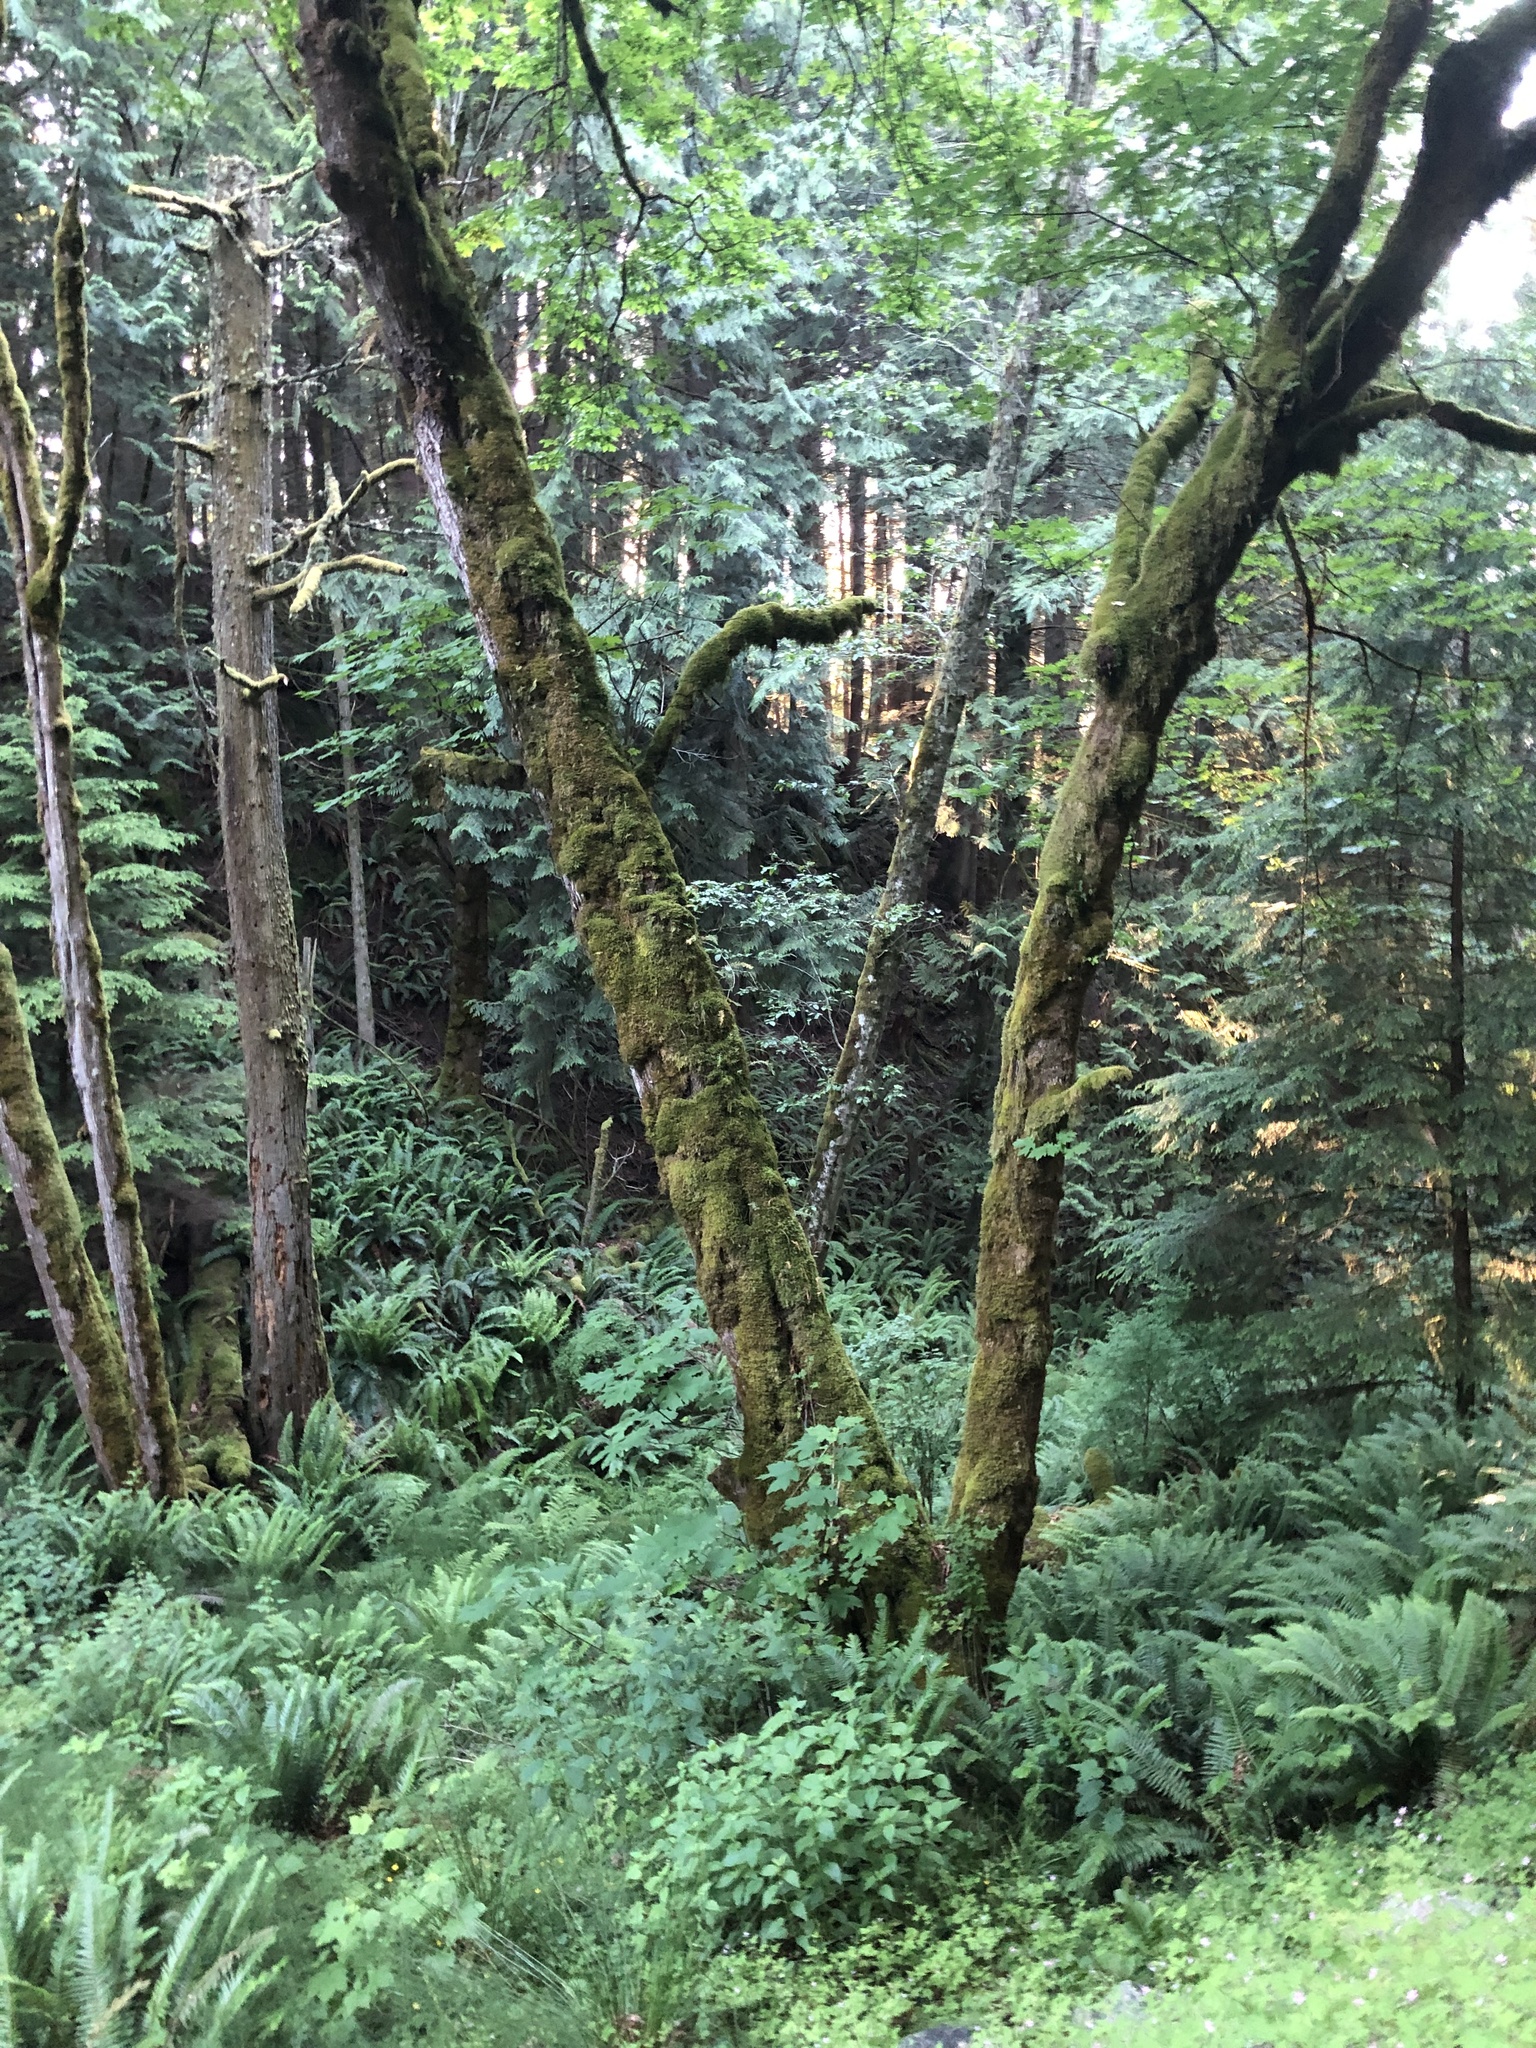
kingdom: Plantae
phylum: Tracheophyta
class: Magnoliopsida
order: Sapindales
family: Sapindaceae
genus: Acer
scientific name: Acer macrophyllum
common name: Oregon maple
